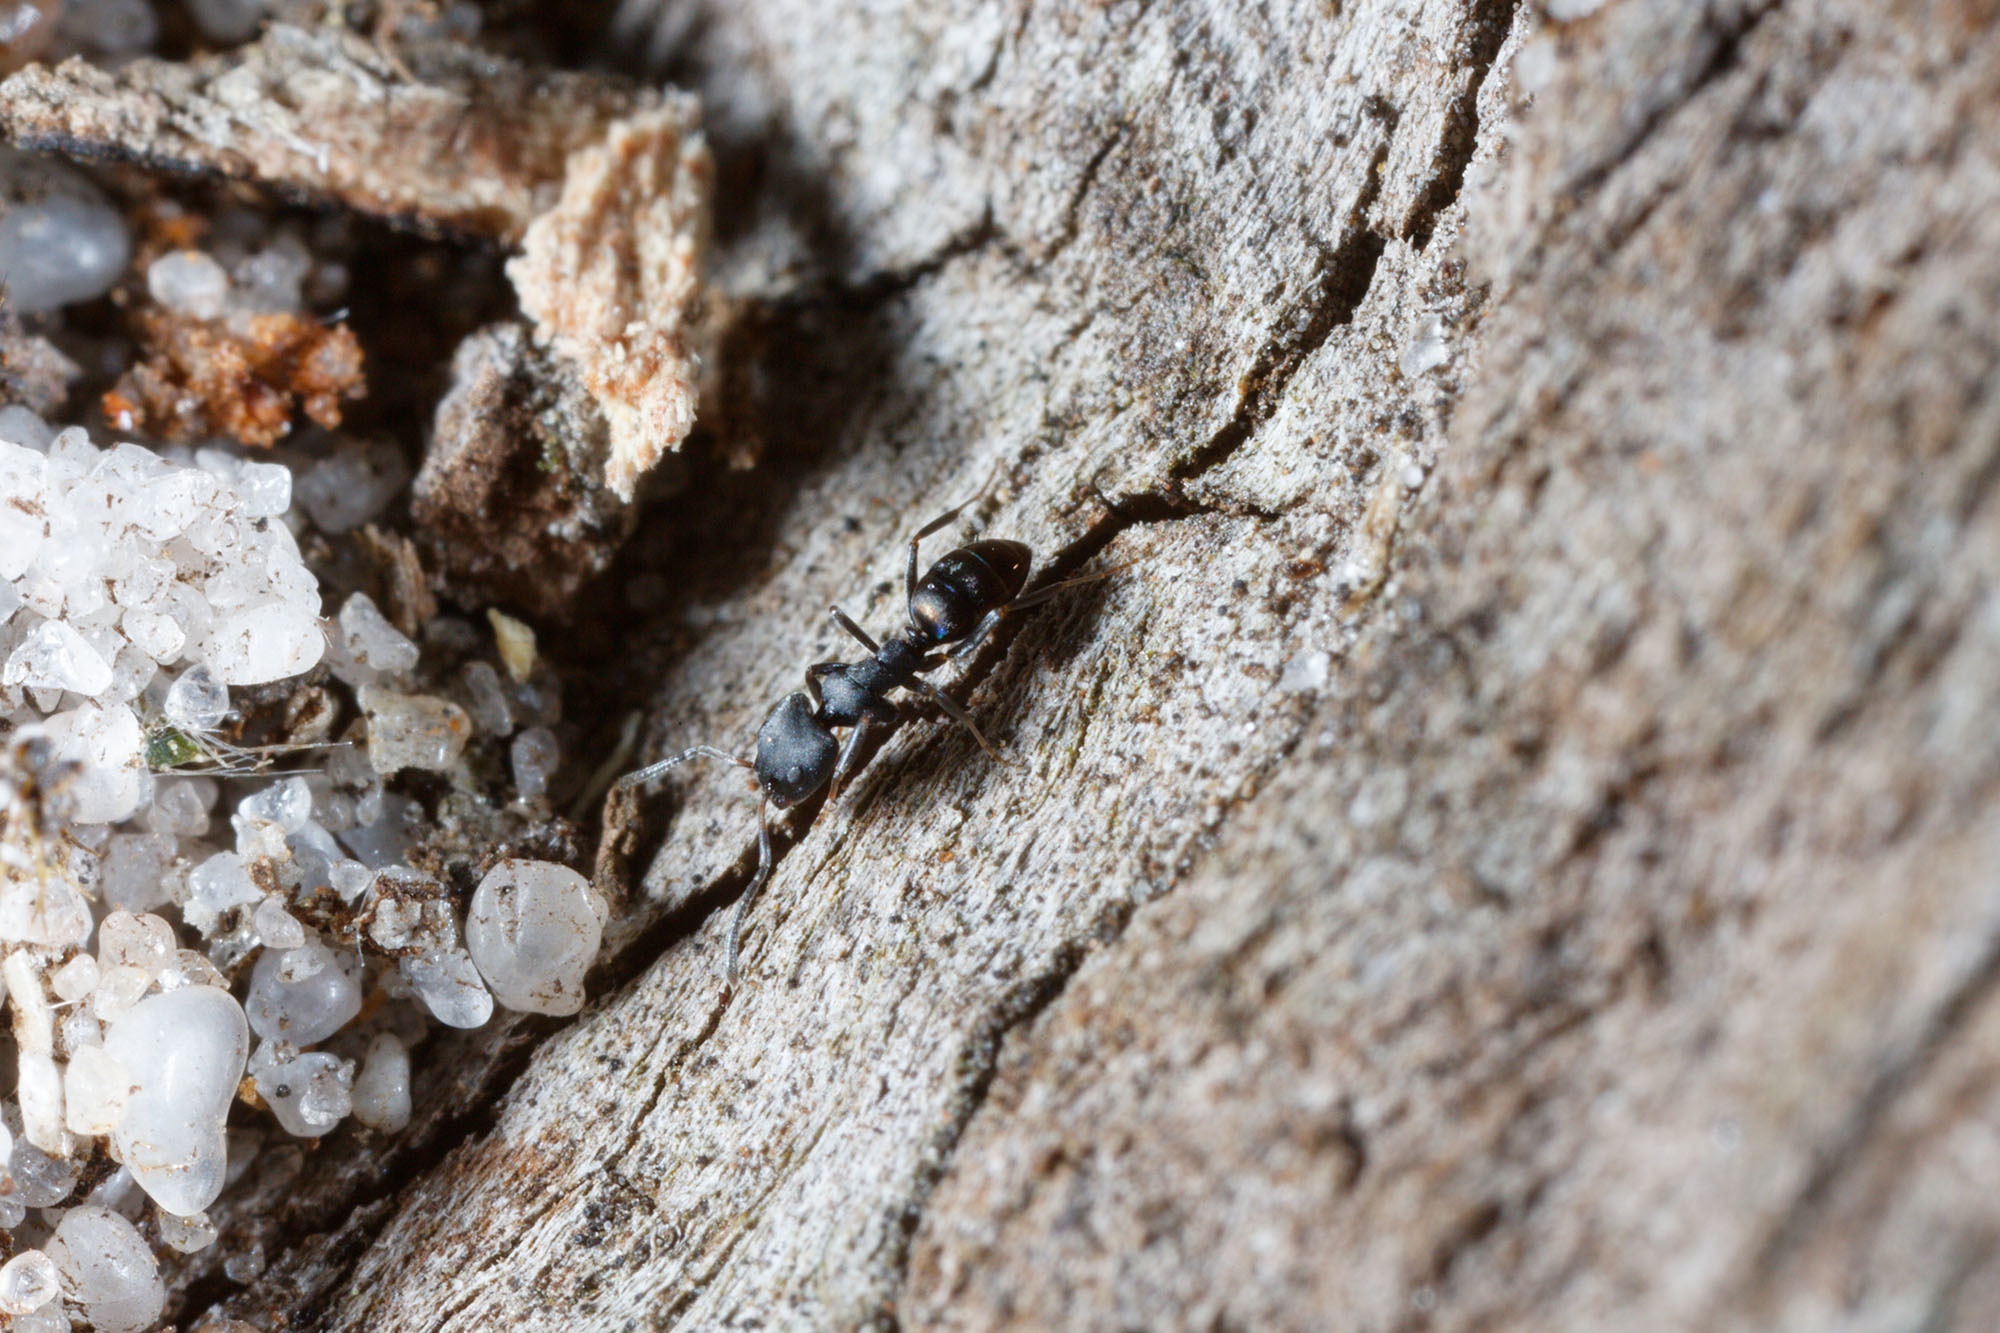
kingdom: Animalia
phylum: Arthropoda
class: Insecta
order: Hymenoptera
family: Formicidae
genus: Ochetellus
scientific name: Ochetellus punctatissimus
